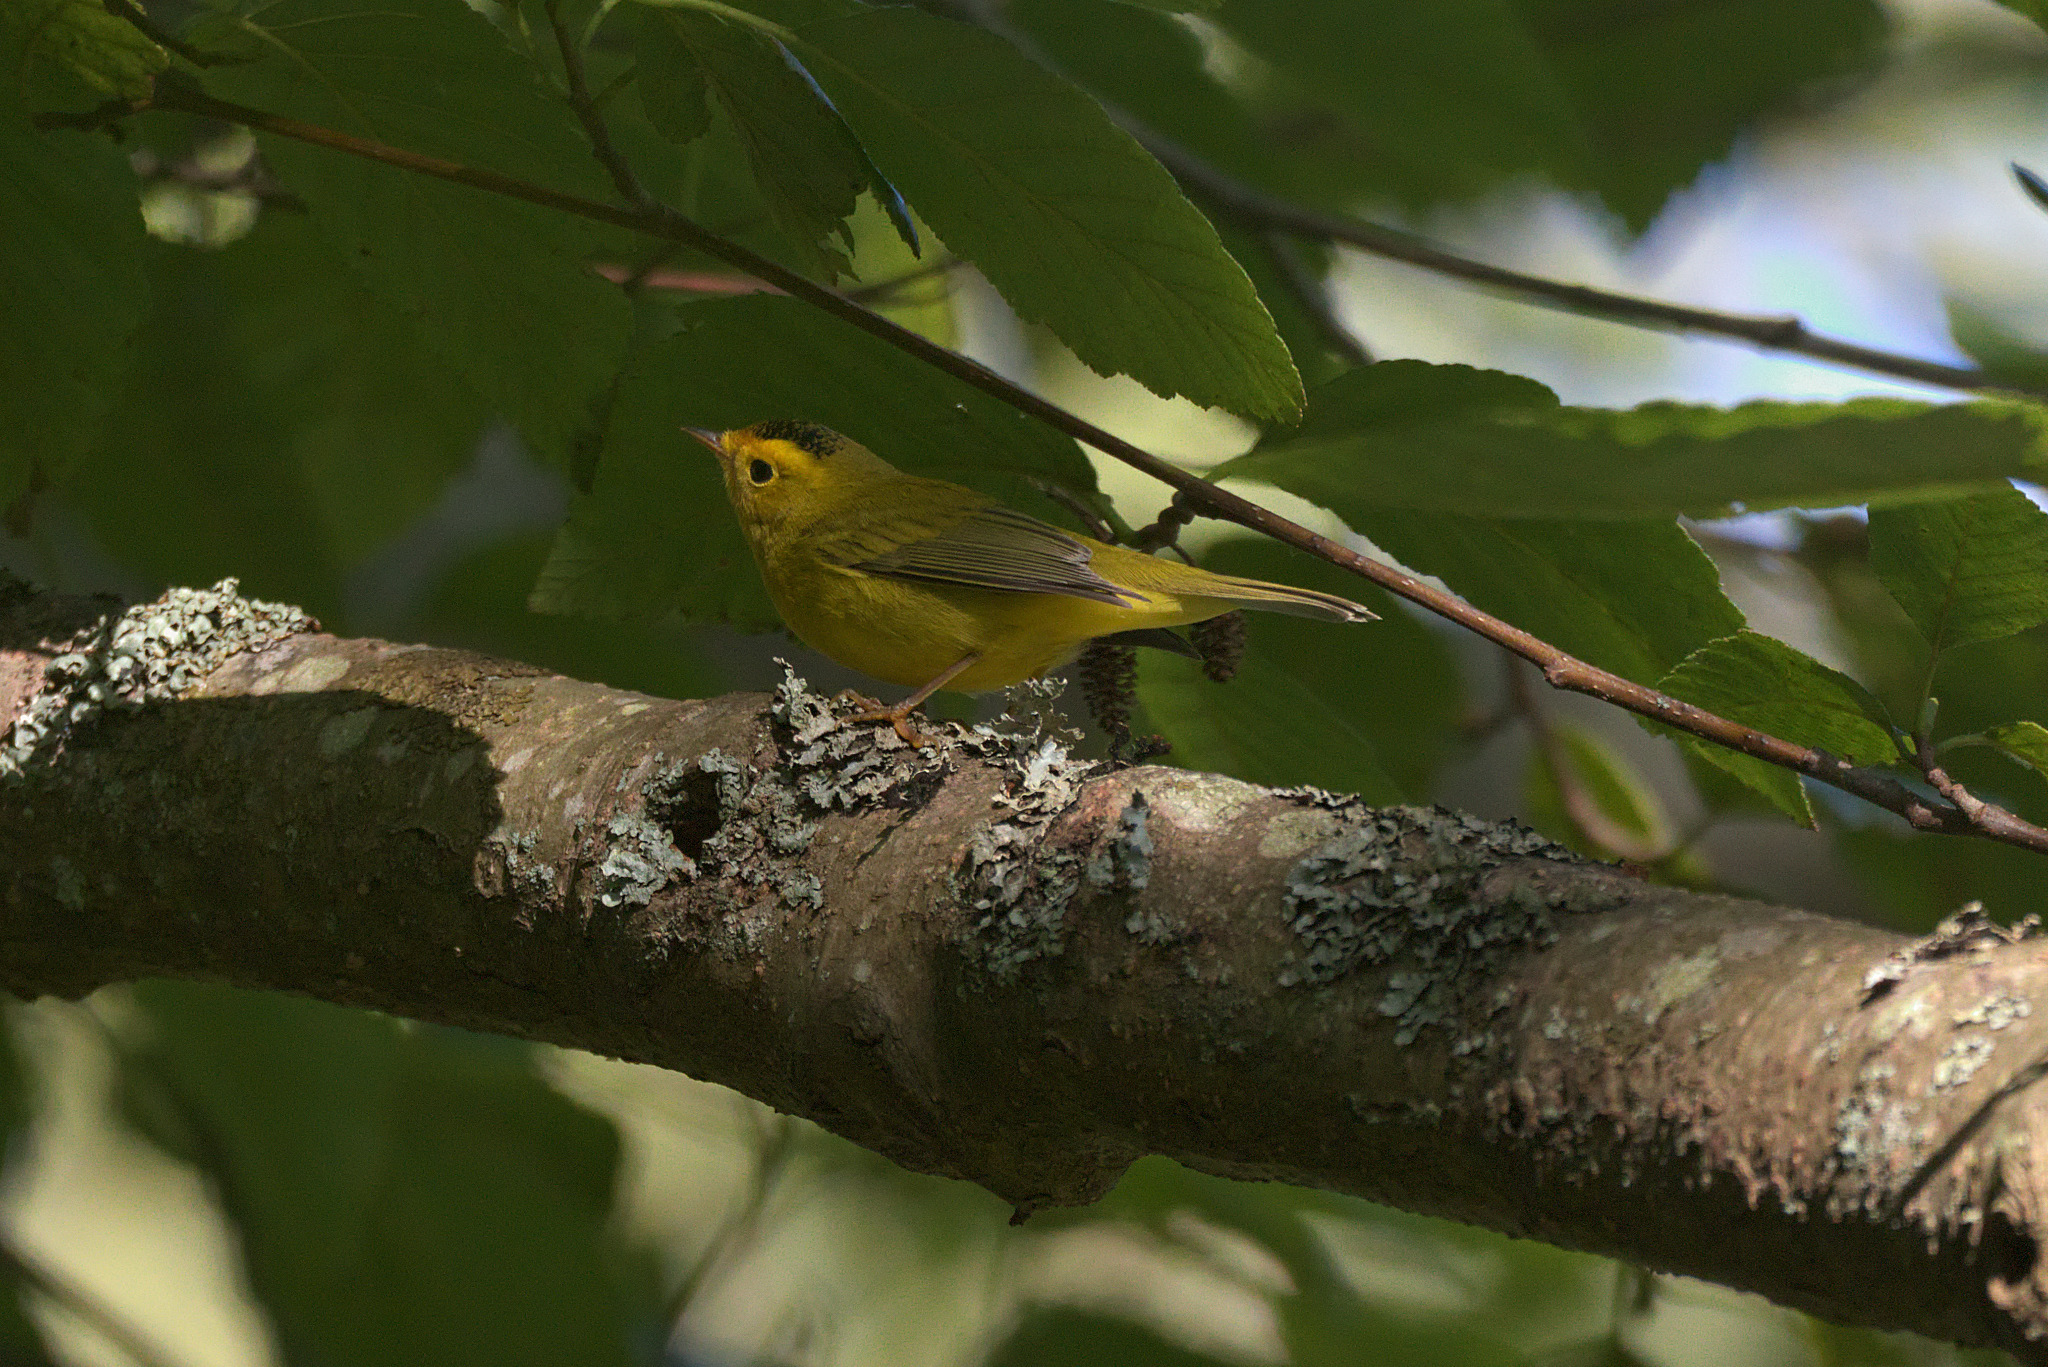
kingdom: Animalia
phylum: Chordata
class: Aves
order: Passeriformes
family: Parulidae
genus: Cardellina
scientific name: Cardellina pusilla
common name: Wilson's warbler
